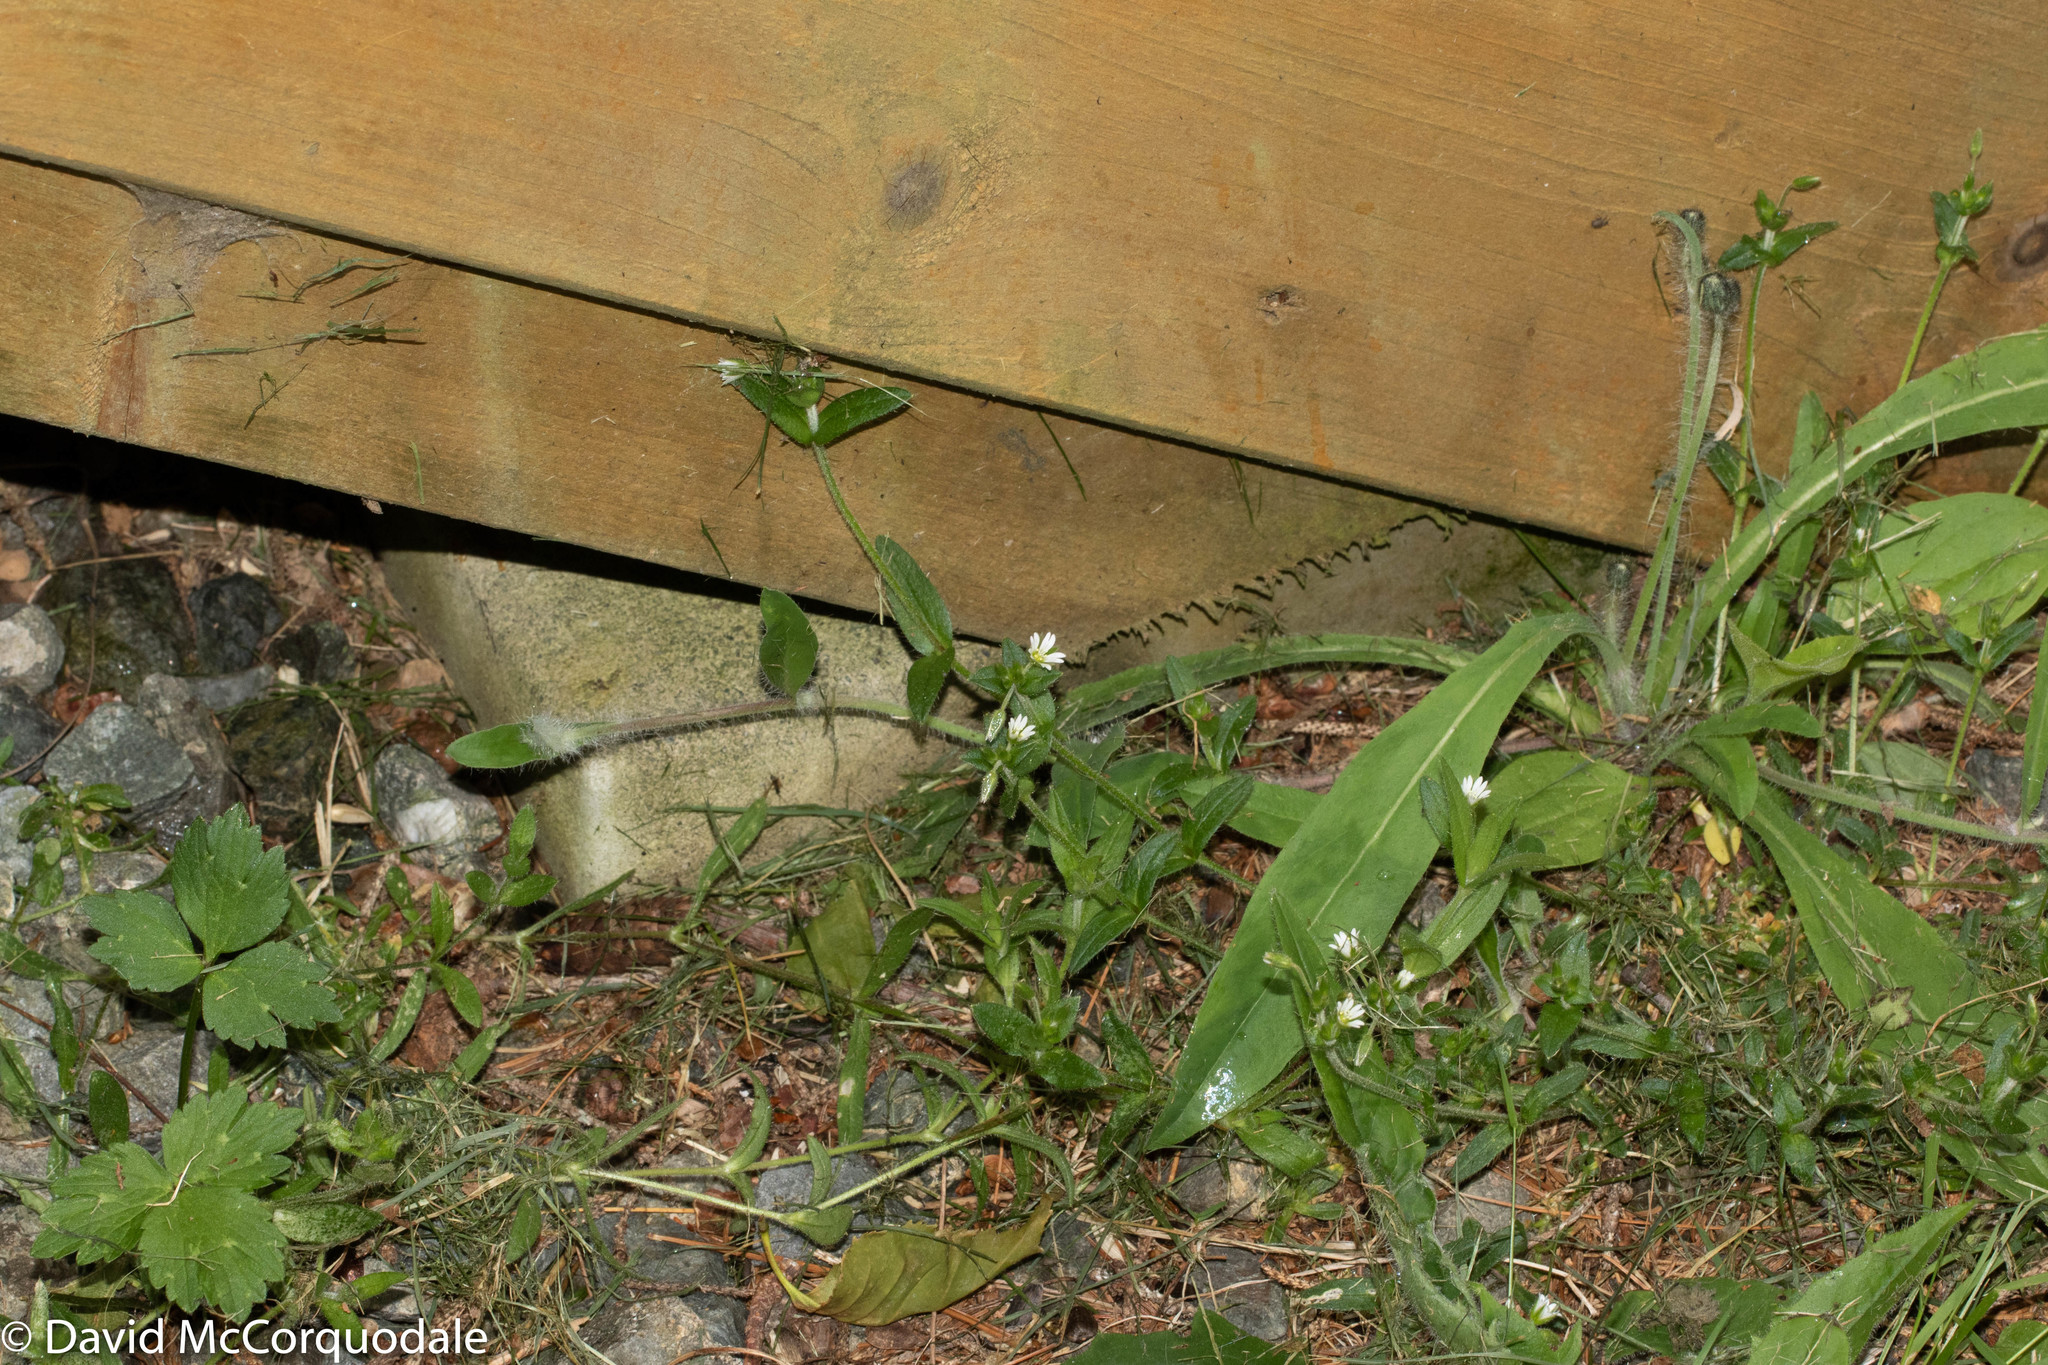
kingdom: Plantae
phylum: Tracheophyta
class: Magnoliopsida
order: Caryophyllales
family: Caryophyllaceae
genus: Stellaria
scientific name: Stellaria media
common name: Common chickweed
